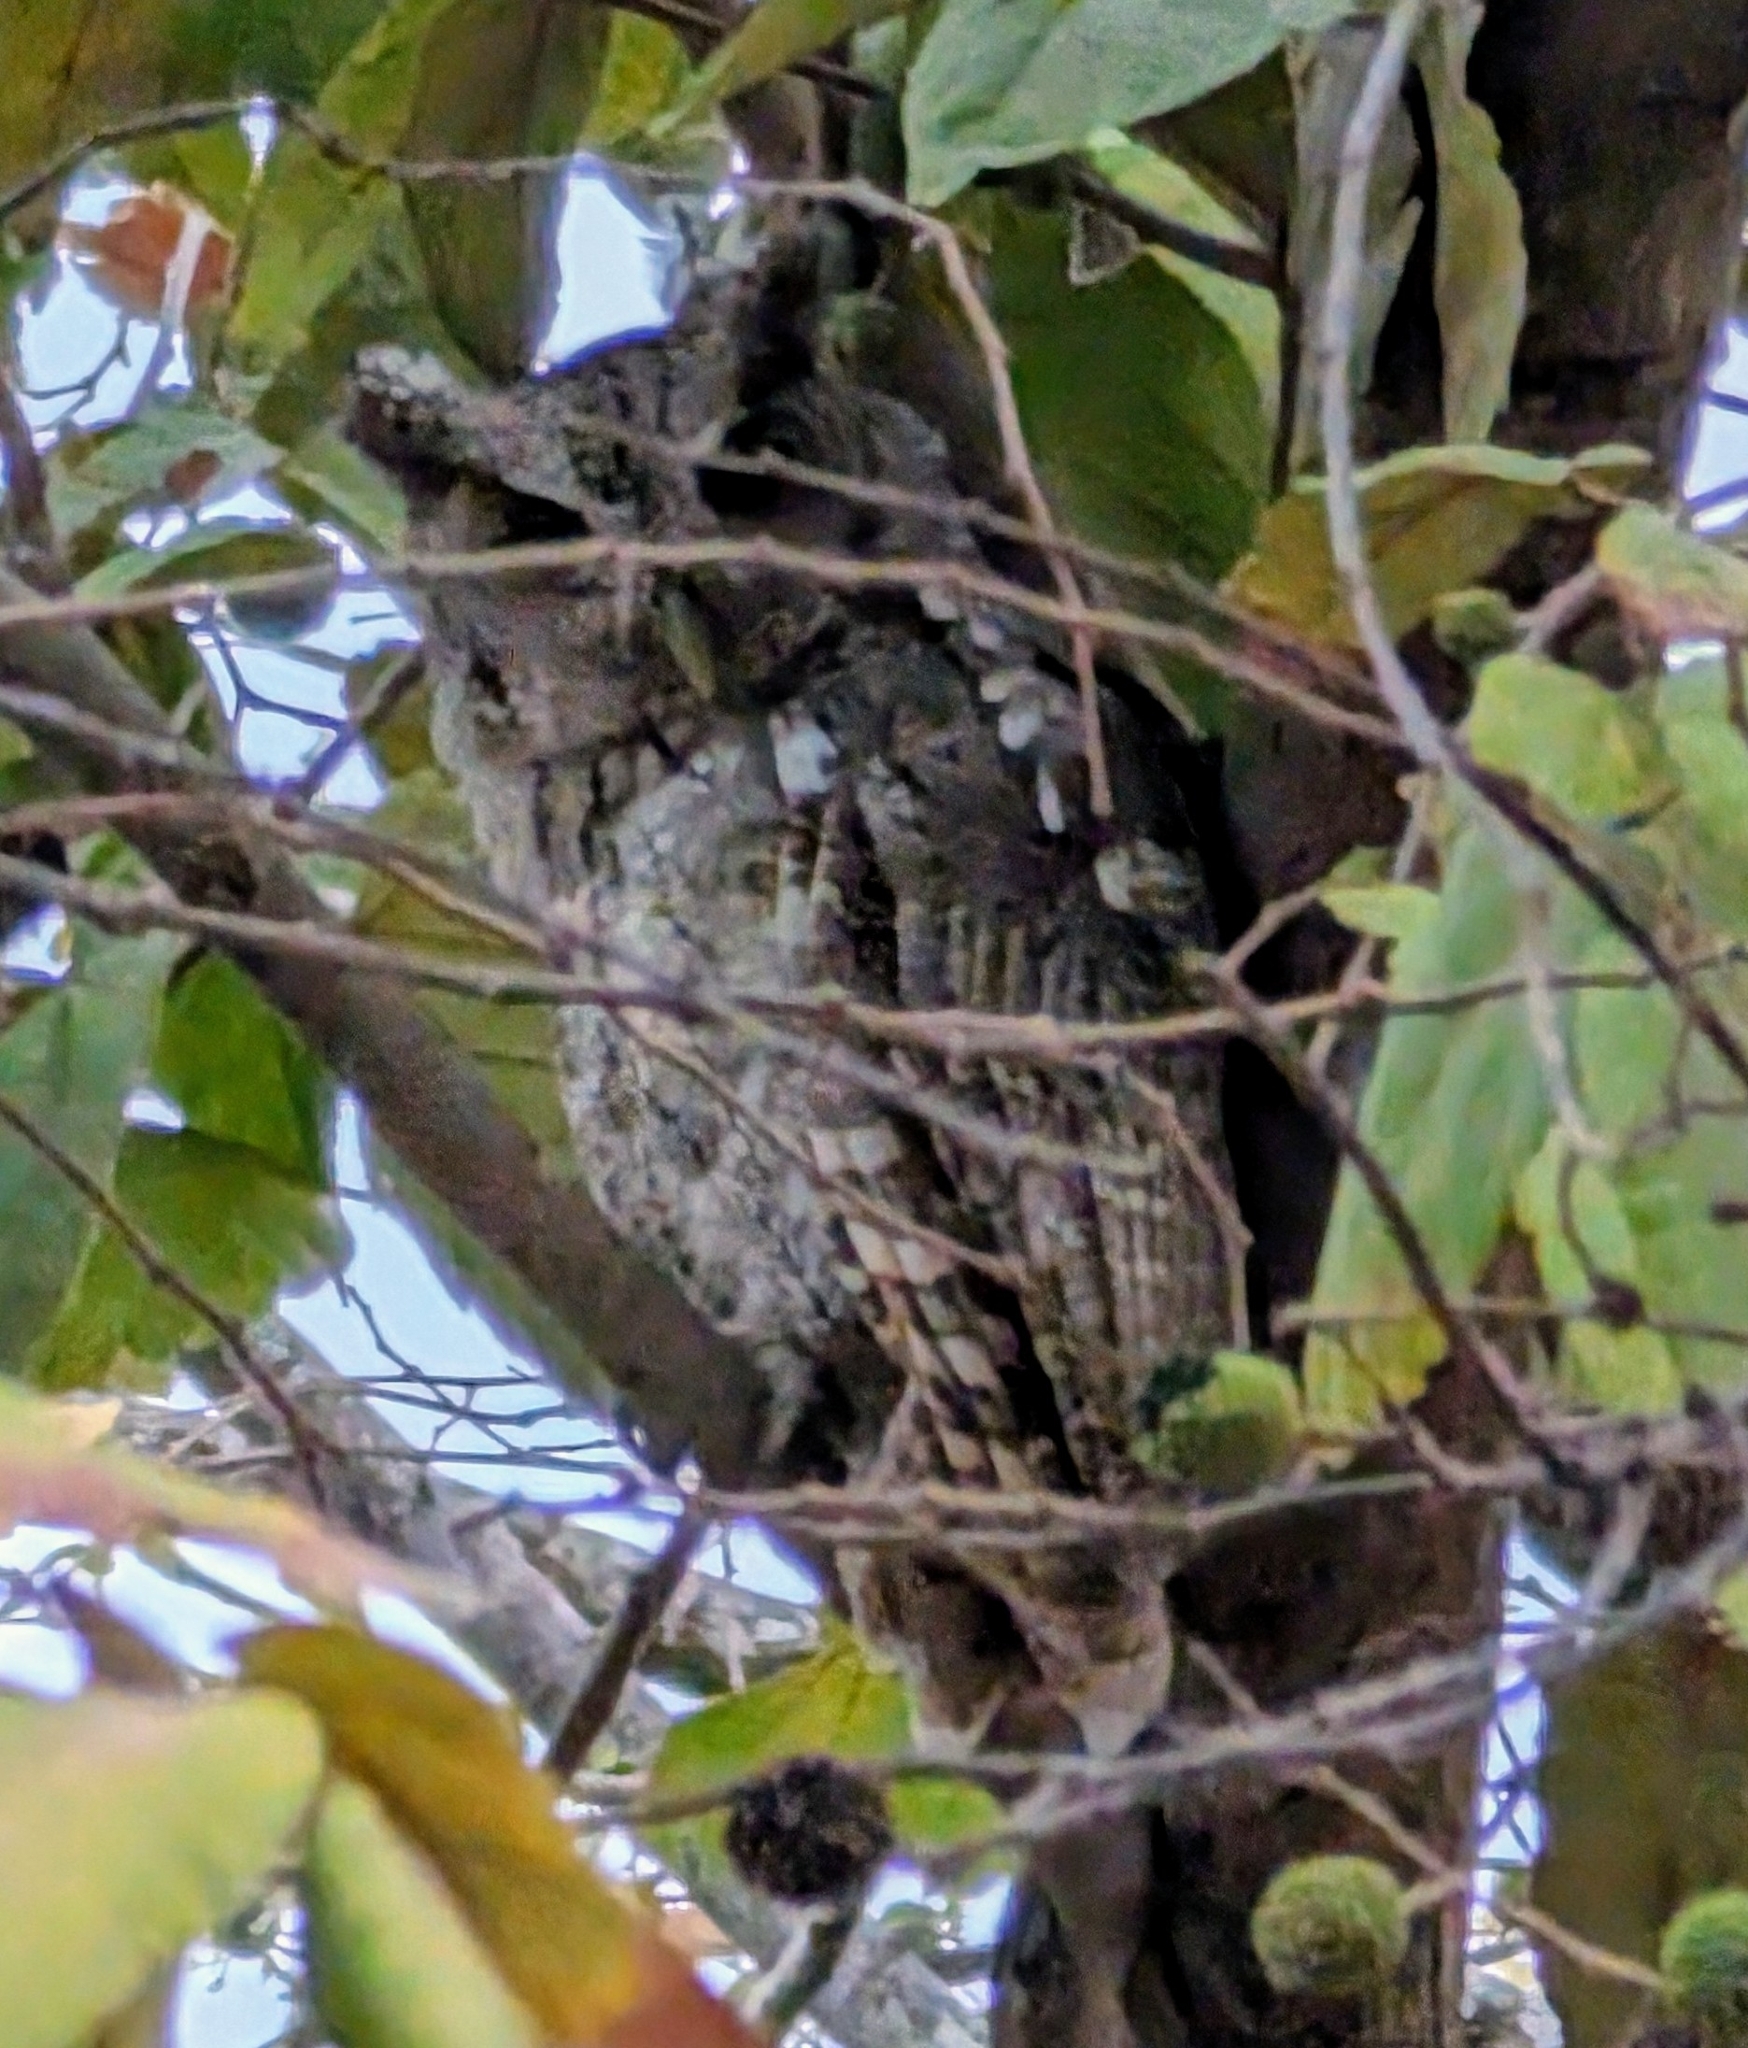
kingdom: Animalia
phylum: Chordata
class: Aves
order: Strigiformes
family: Strigidae
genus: Megascops
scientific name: Megascops cooperi
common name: Pacific screech-owl
